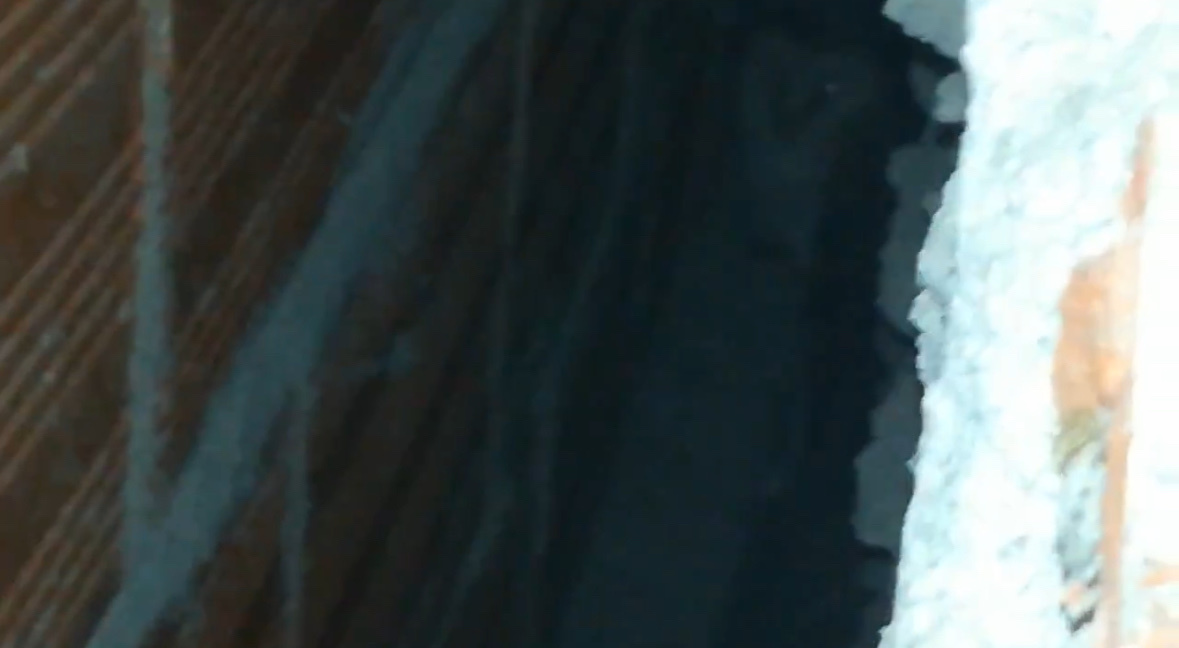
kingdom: Animalia
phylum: Chordata
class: Aves
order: Strigiformes
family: Tytonidae
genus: Tyto
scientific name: Tyto alba
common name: Barn owl
